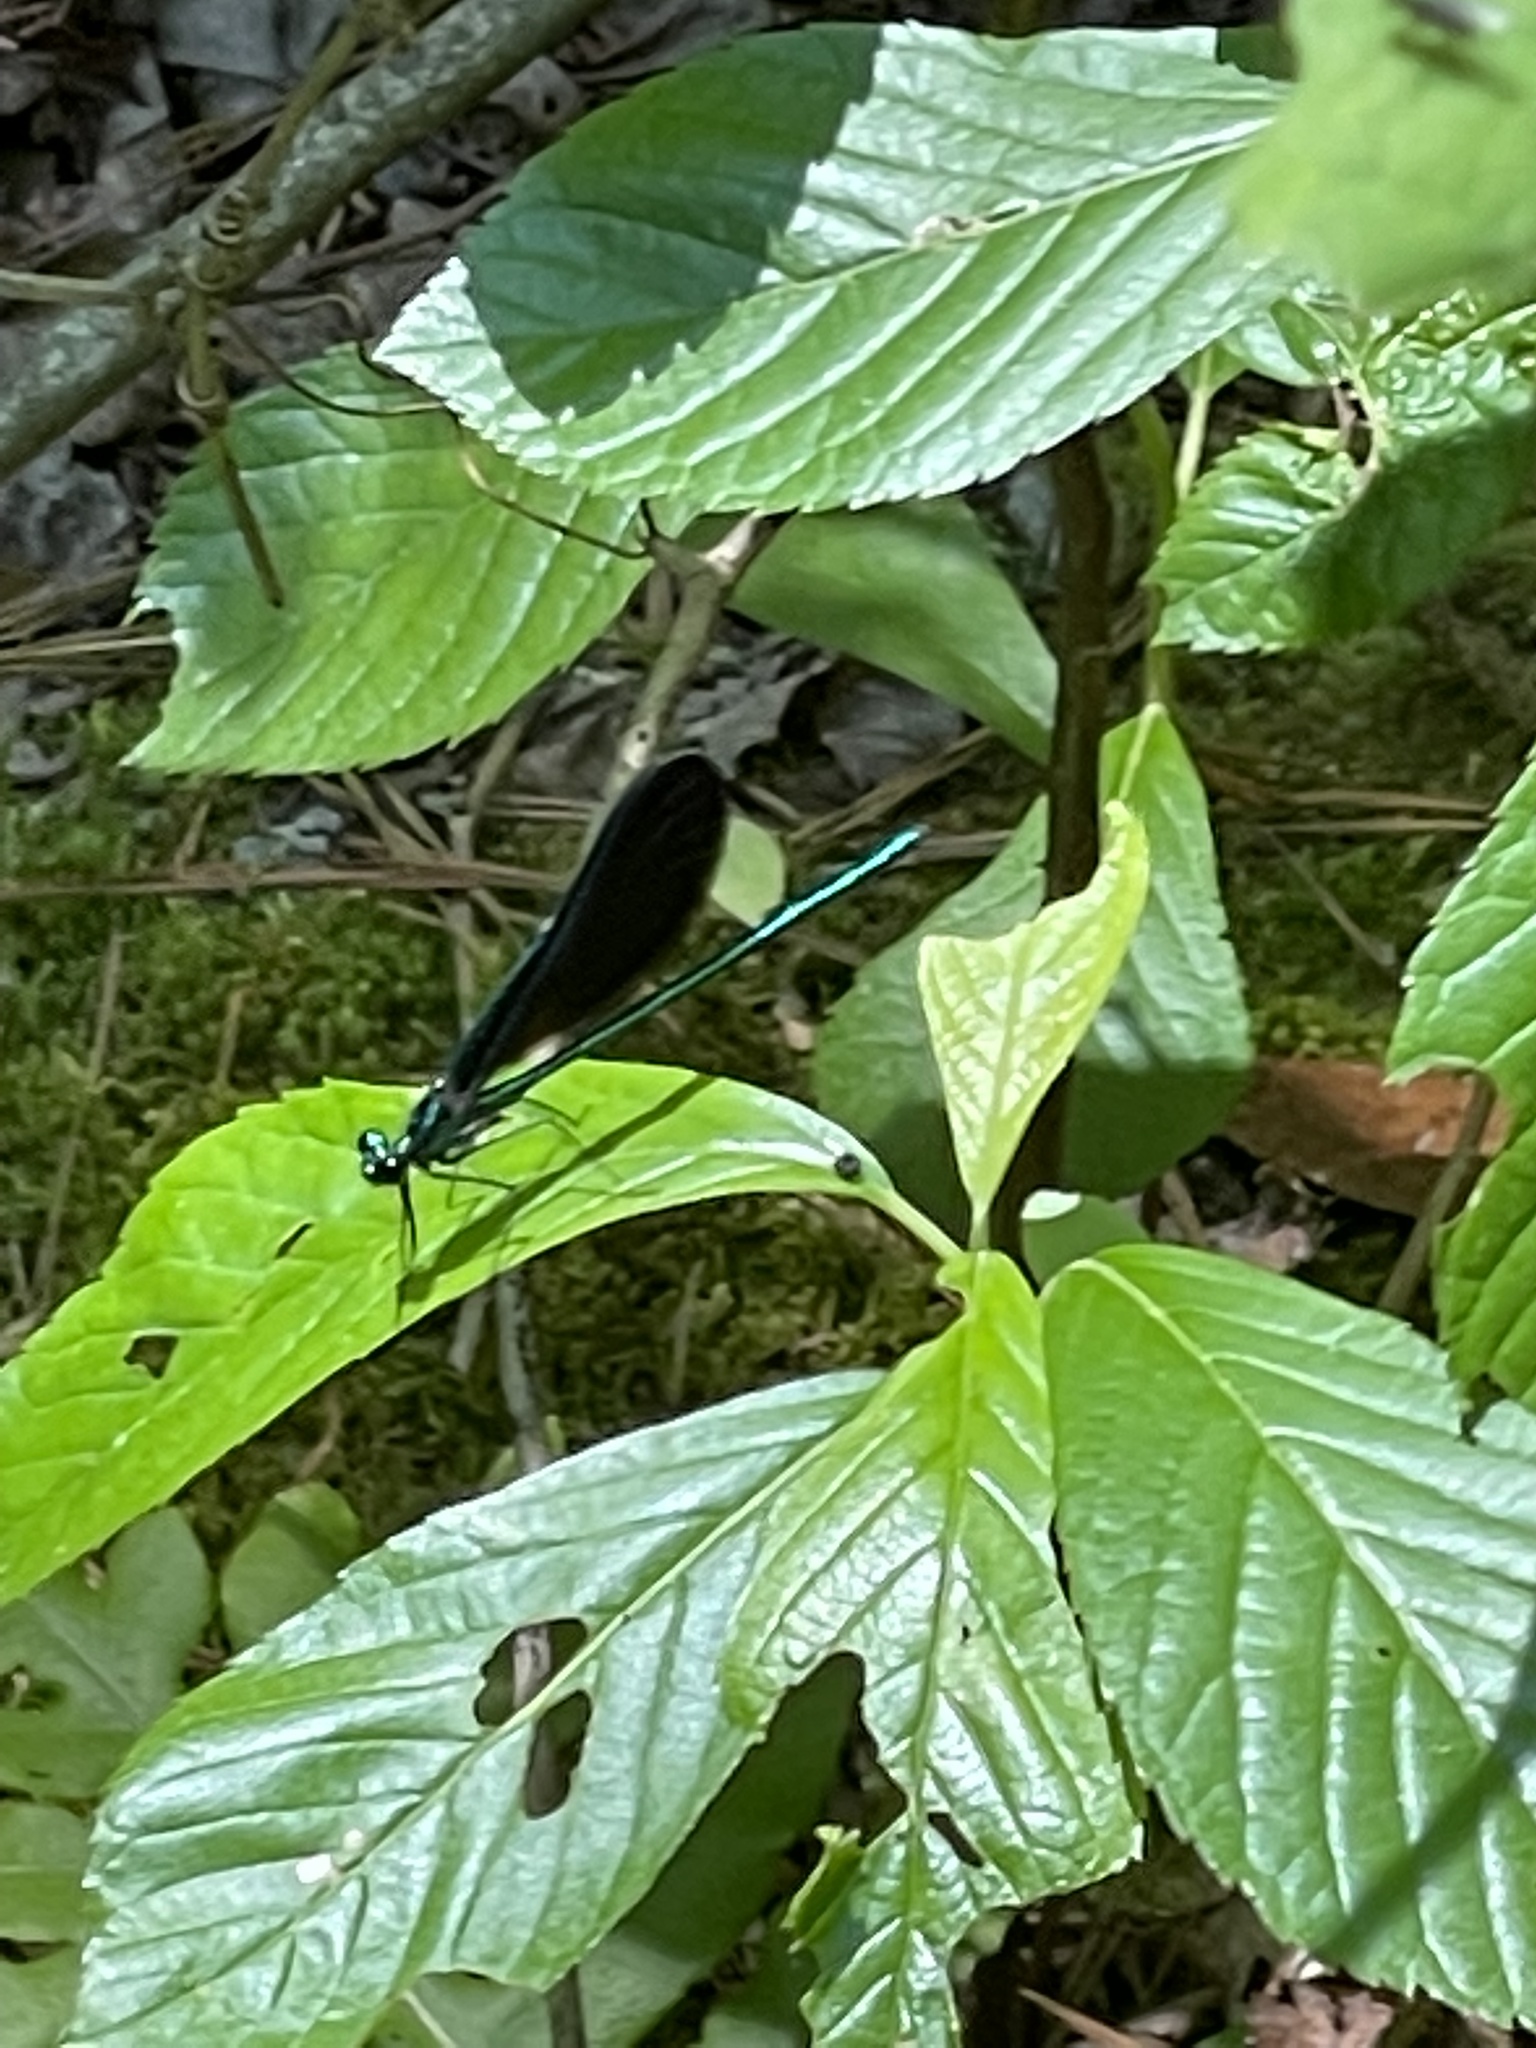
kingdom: Animalia
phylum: Arthropoda
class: Insecta
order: Odonata
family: Calopterygidae
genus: Calopteryx
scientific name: Calopteryx maculata
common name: Ebony jewelwing
